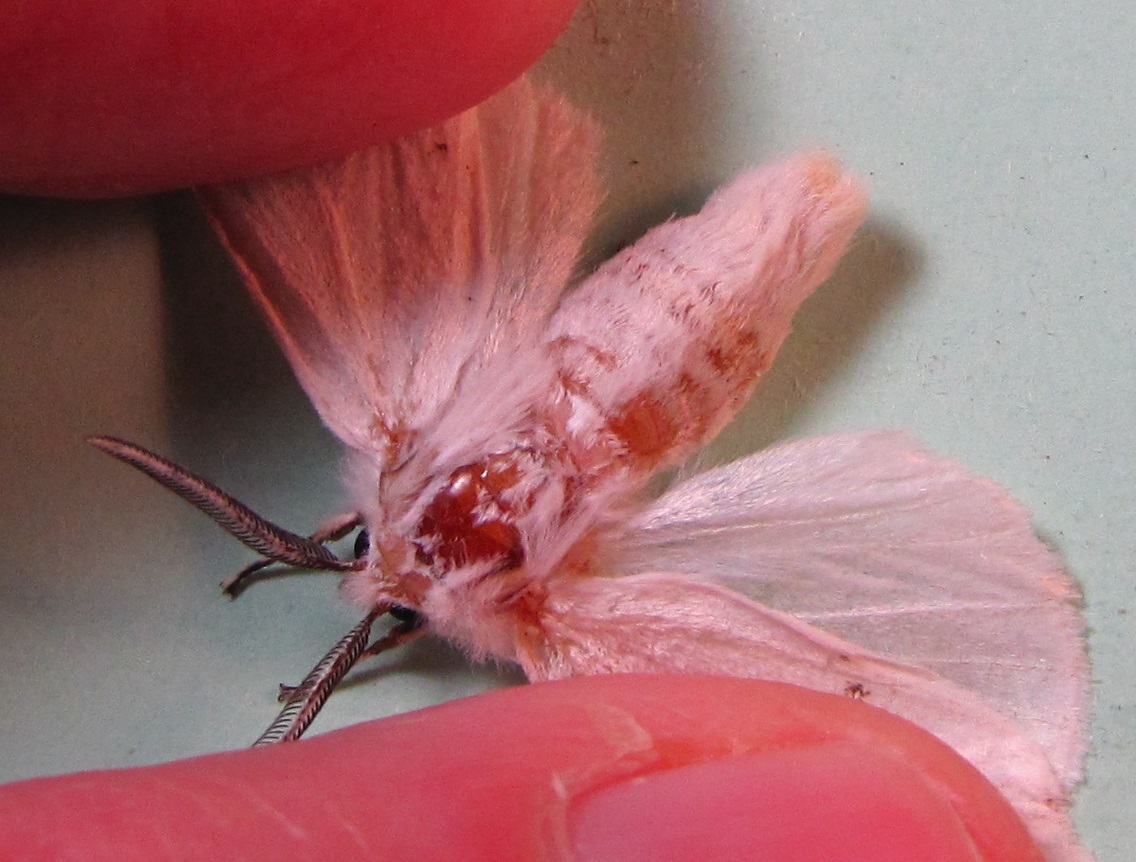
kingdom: Animalia
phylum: Arthropoda
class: Insecta
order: Lepidoptera
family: Erebidae
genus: Spilosoma
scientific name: Spilosoma congrua
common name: Agreeable tiger moth
